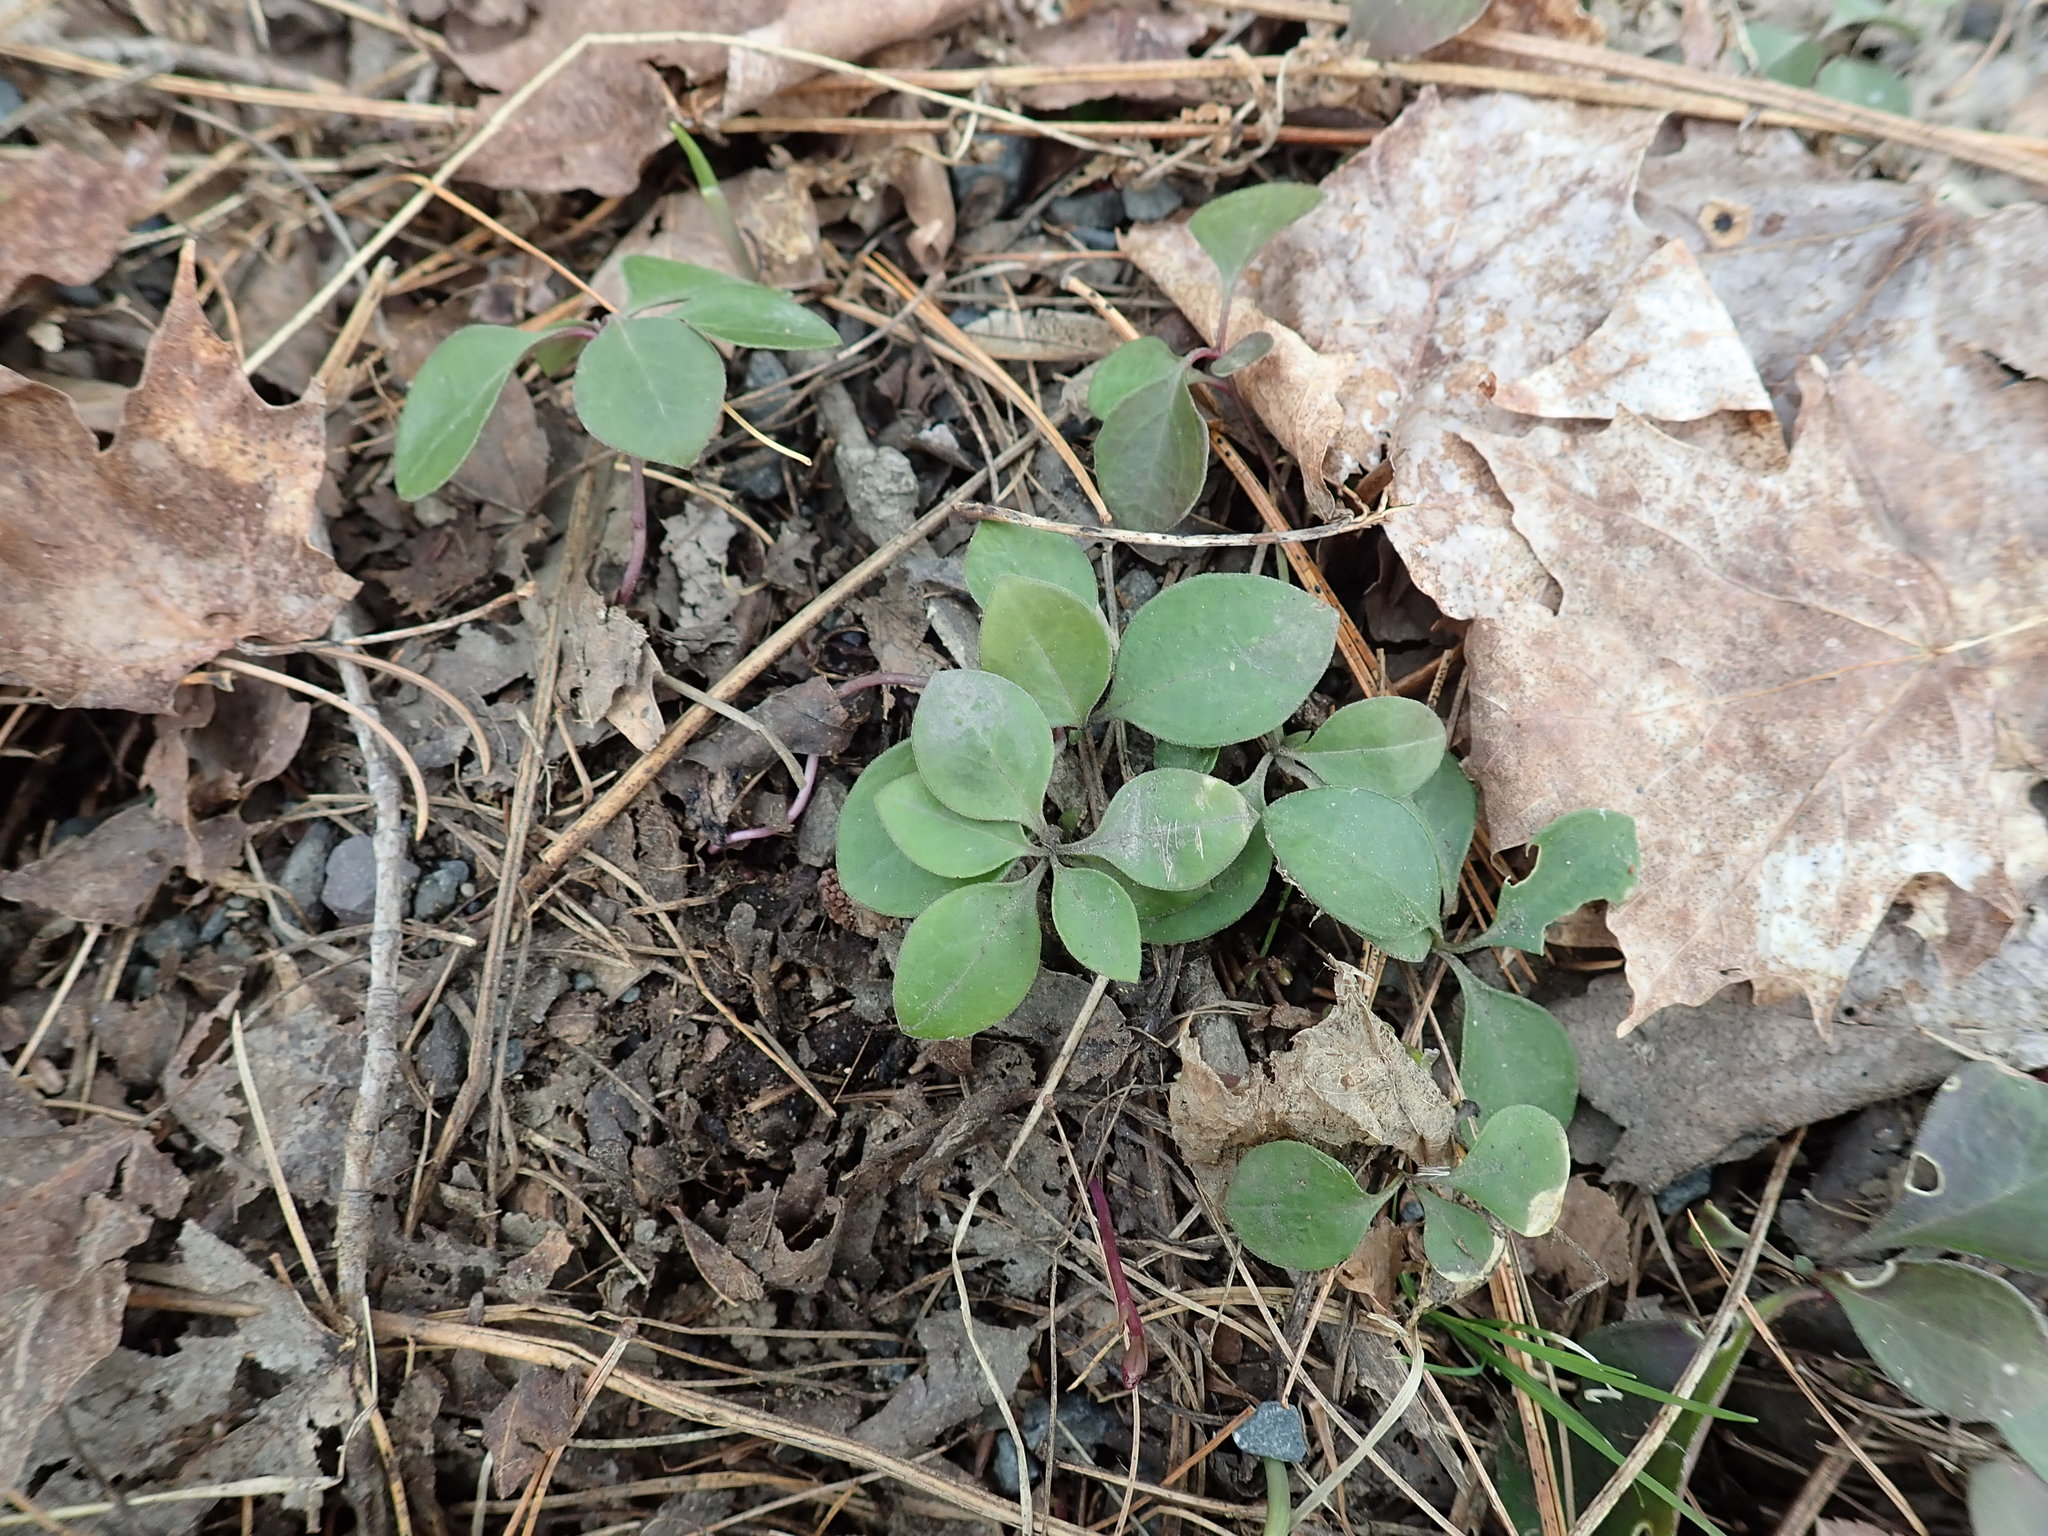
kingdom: Plantae
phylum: Tracheophyta
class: Magnoliopsida
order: Fabales
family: Polygalaceae
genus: Polygaloides
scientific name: Polygaloides paucifolia
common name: Bird-on-the-wing
